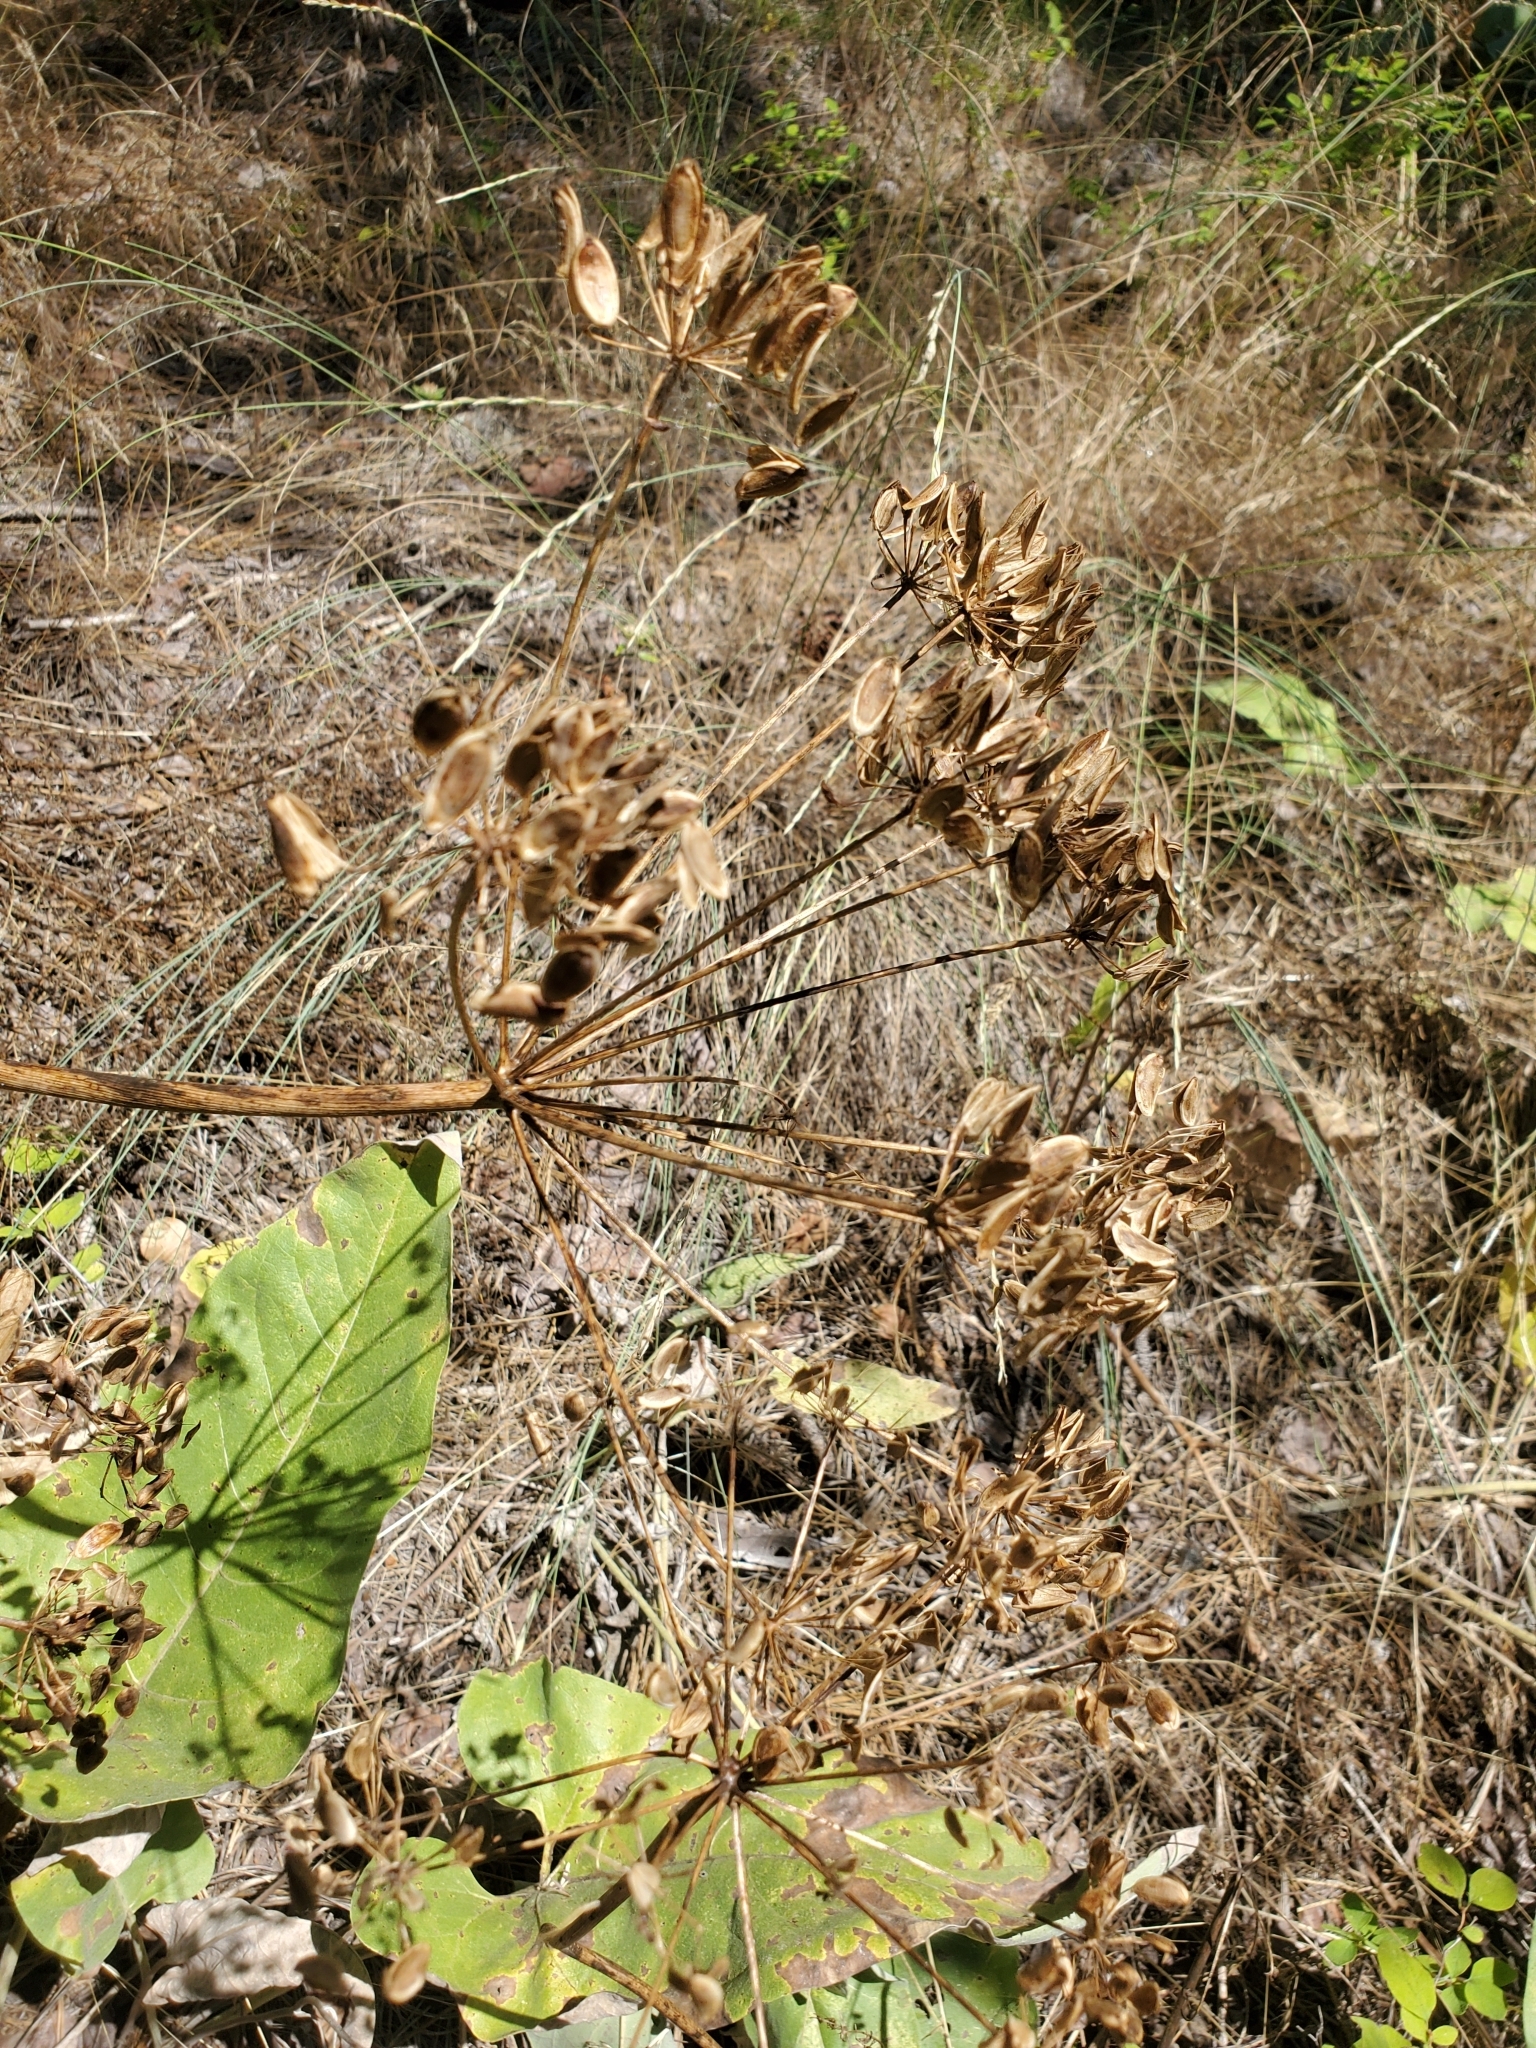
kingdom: Plantae
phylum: Tracheophyta
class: Magnoliopsida
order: Apiales
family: Apiaceae
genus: Lomatium
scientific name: Lomatium multifidum
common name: Carrot-leaved biscuitroot
